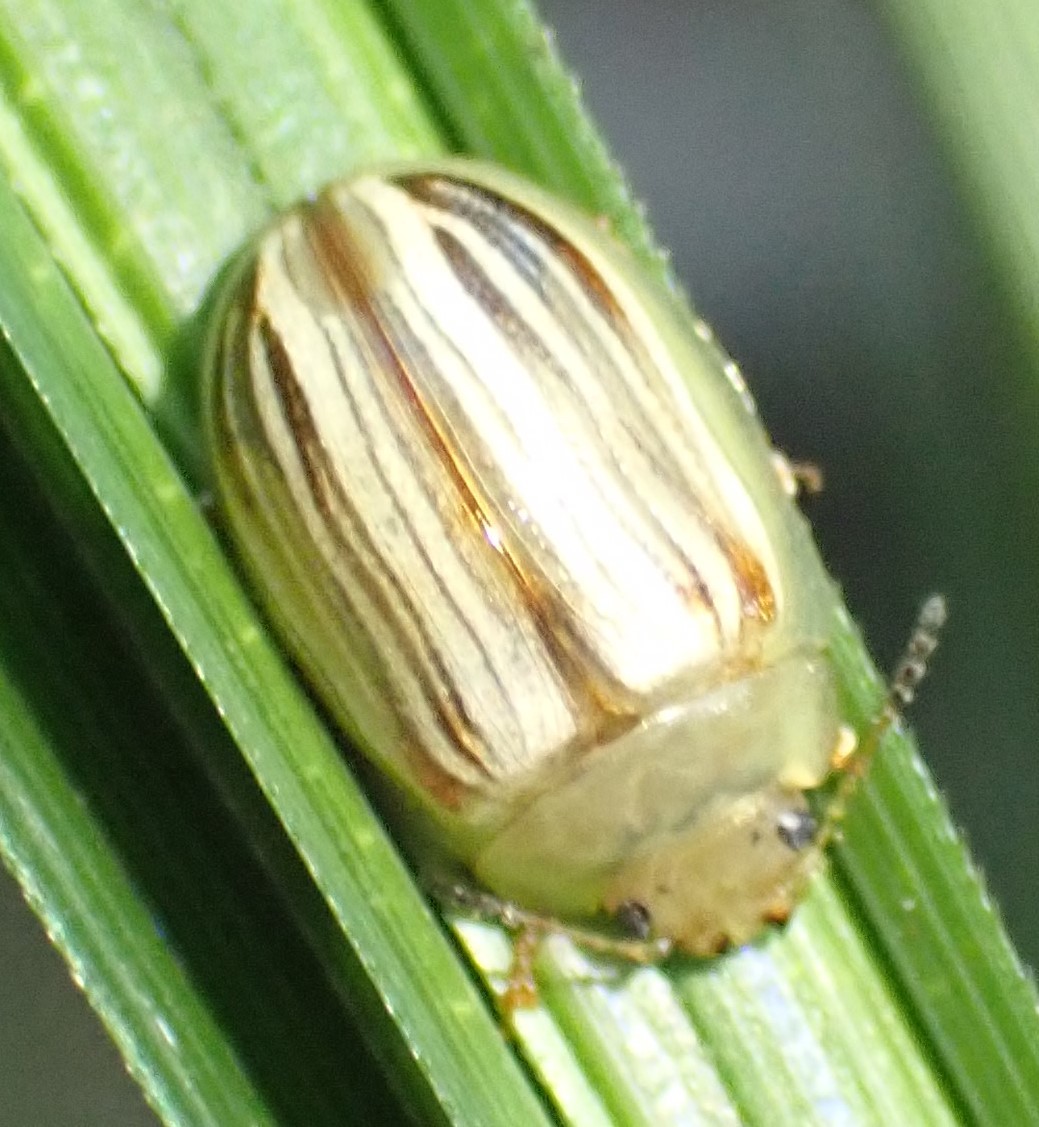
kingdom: Animalia
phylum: Arthropoda
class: Insecta
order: Coleoptera
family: Chrysomelidae
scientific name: Chrysomelidae
